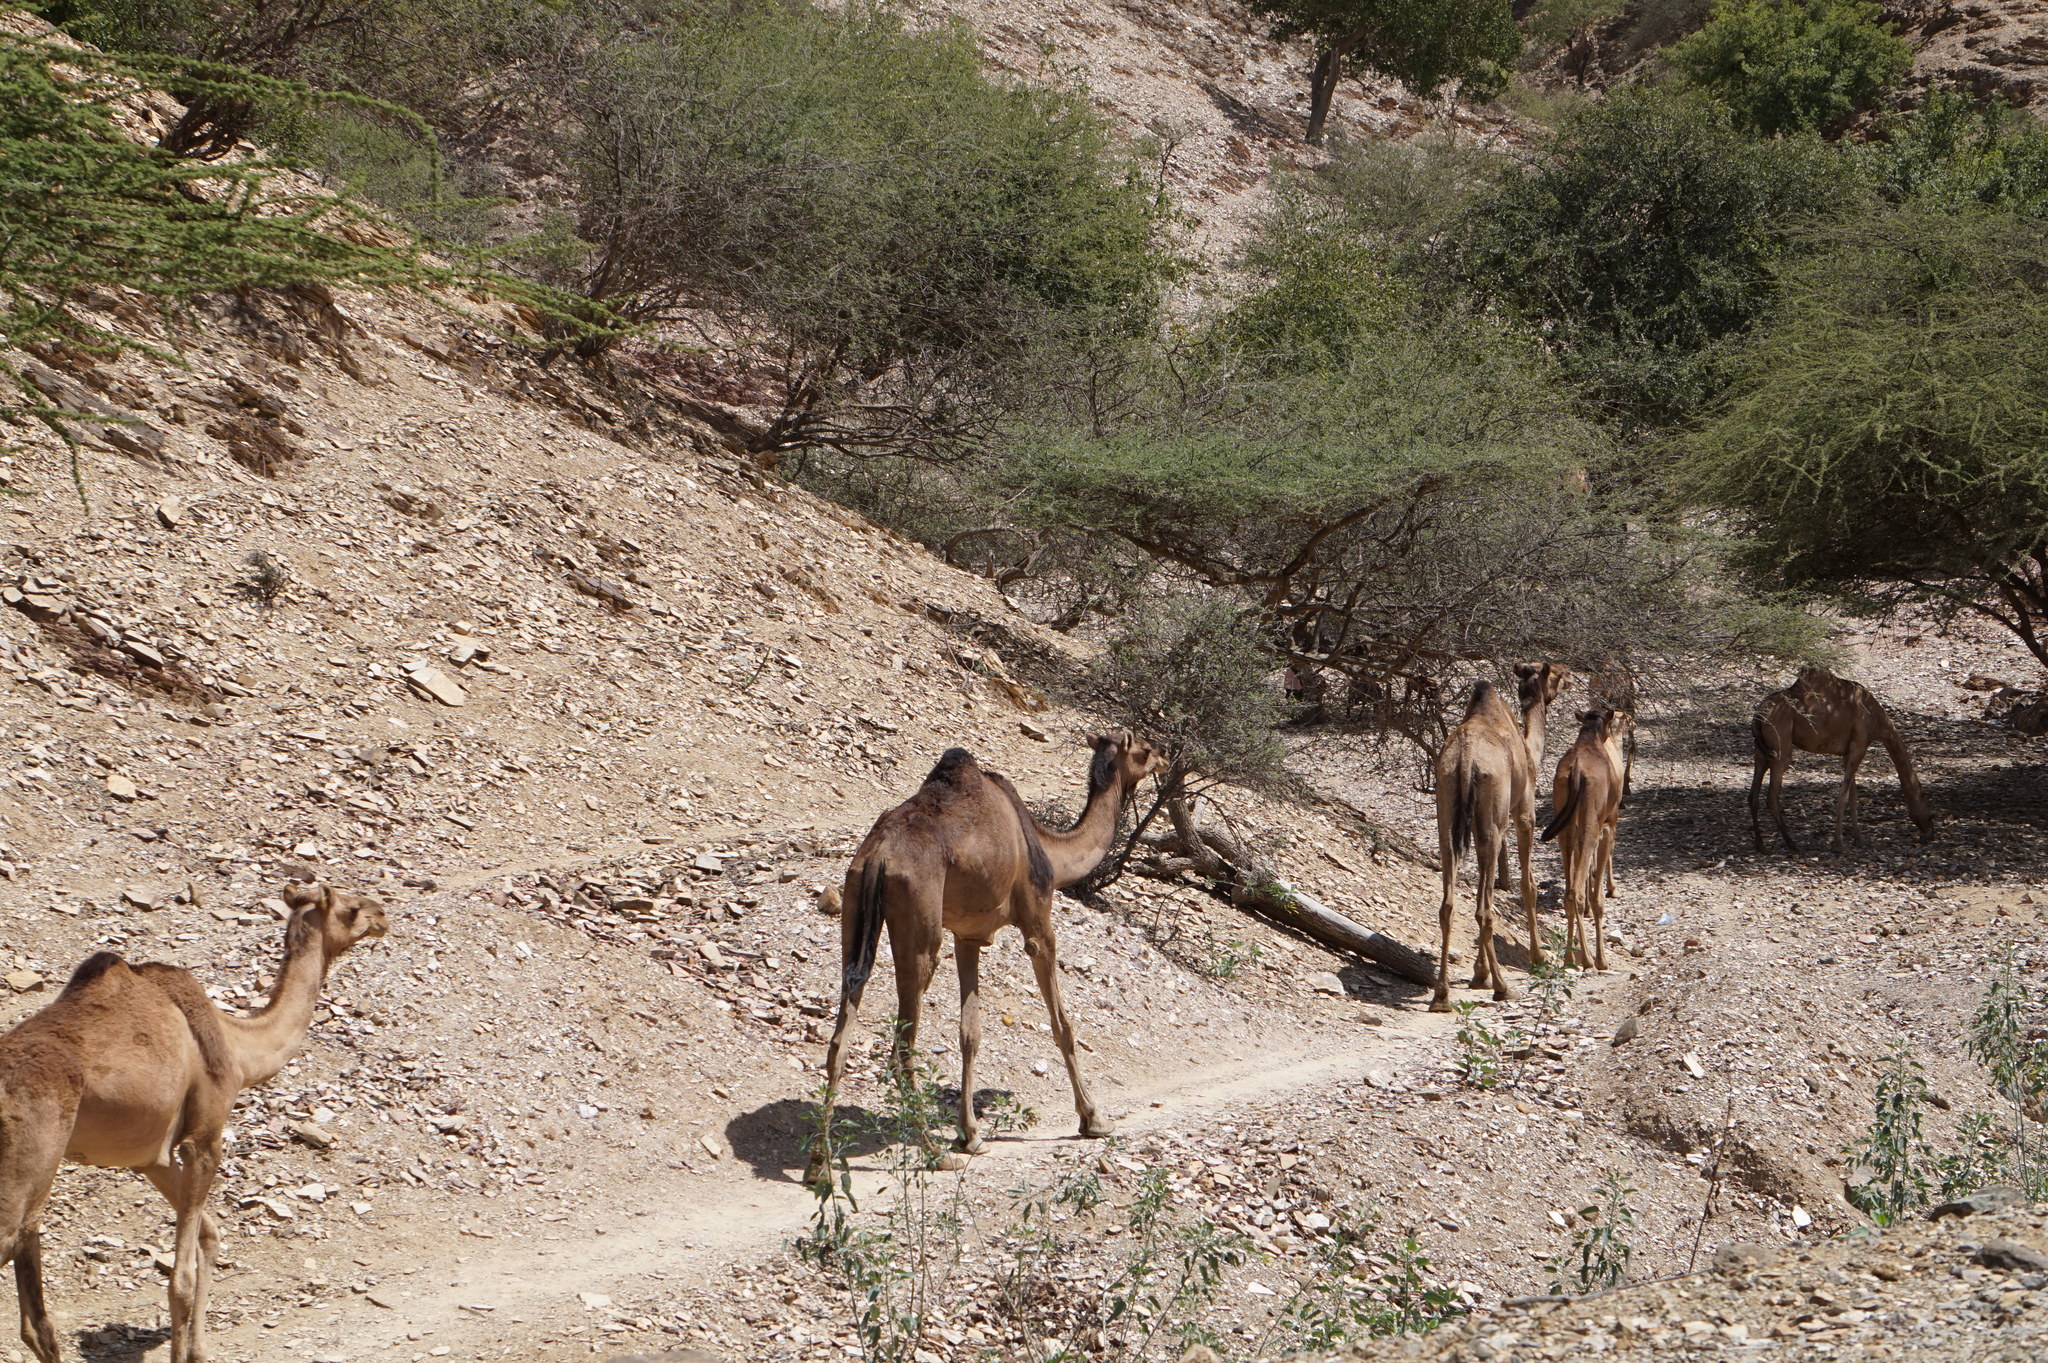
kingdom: Animalia
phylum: Chordata
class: Mammalia
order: Artiodactyla
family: Camelidae
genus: Camelus
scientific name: Camelus dromedarius
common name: One-humped camel
